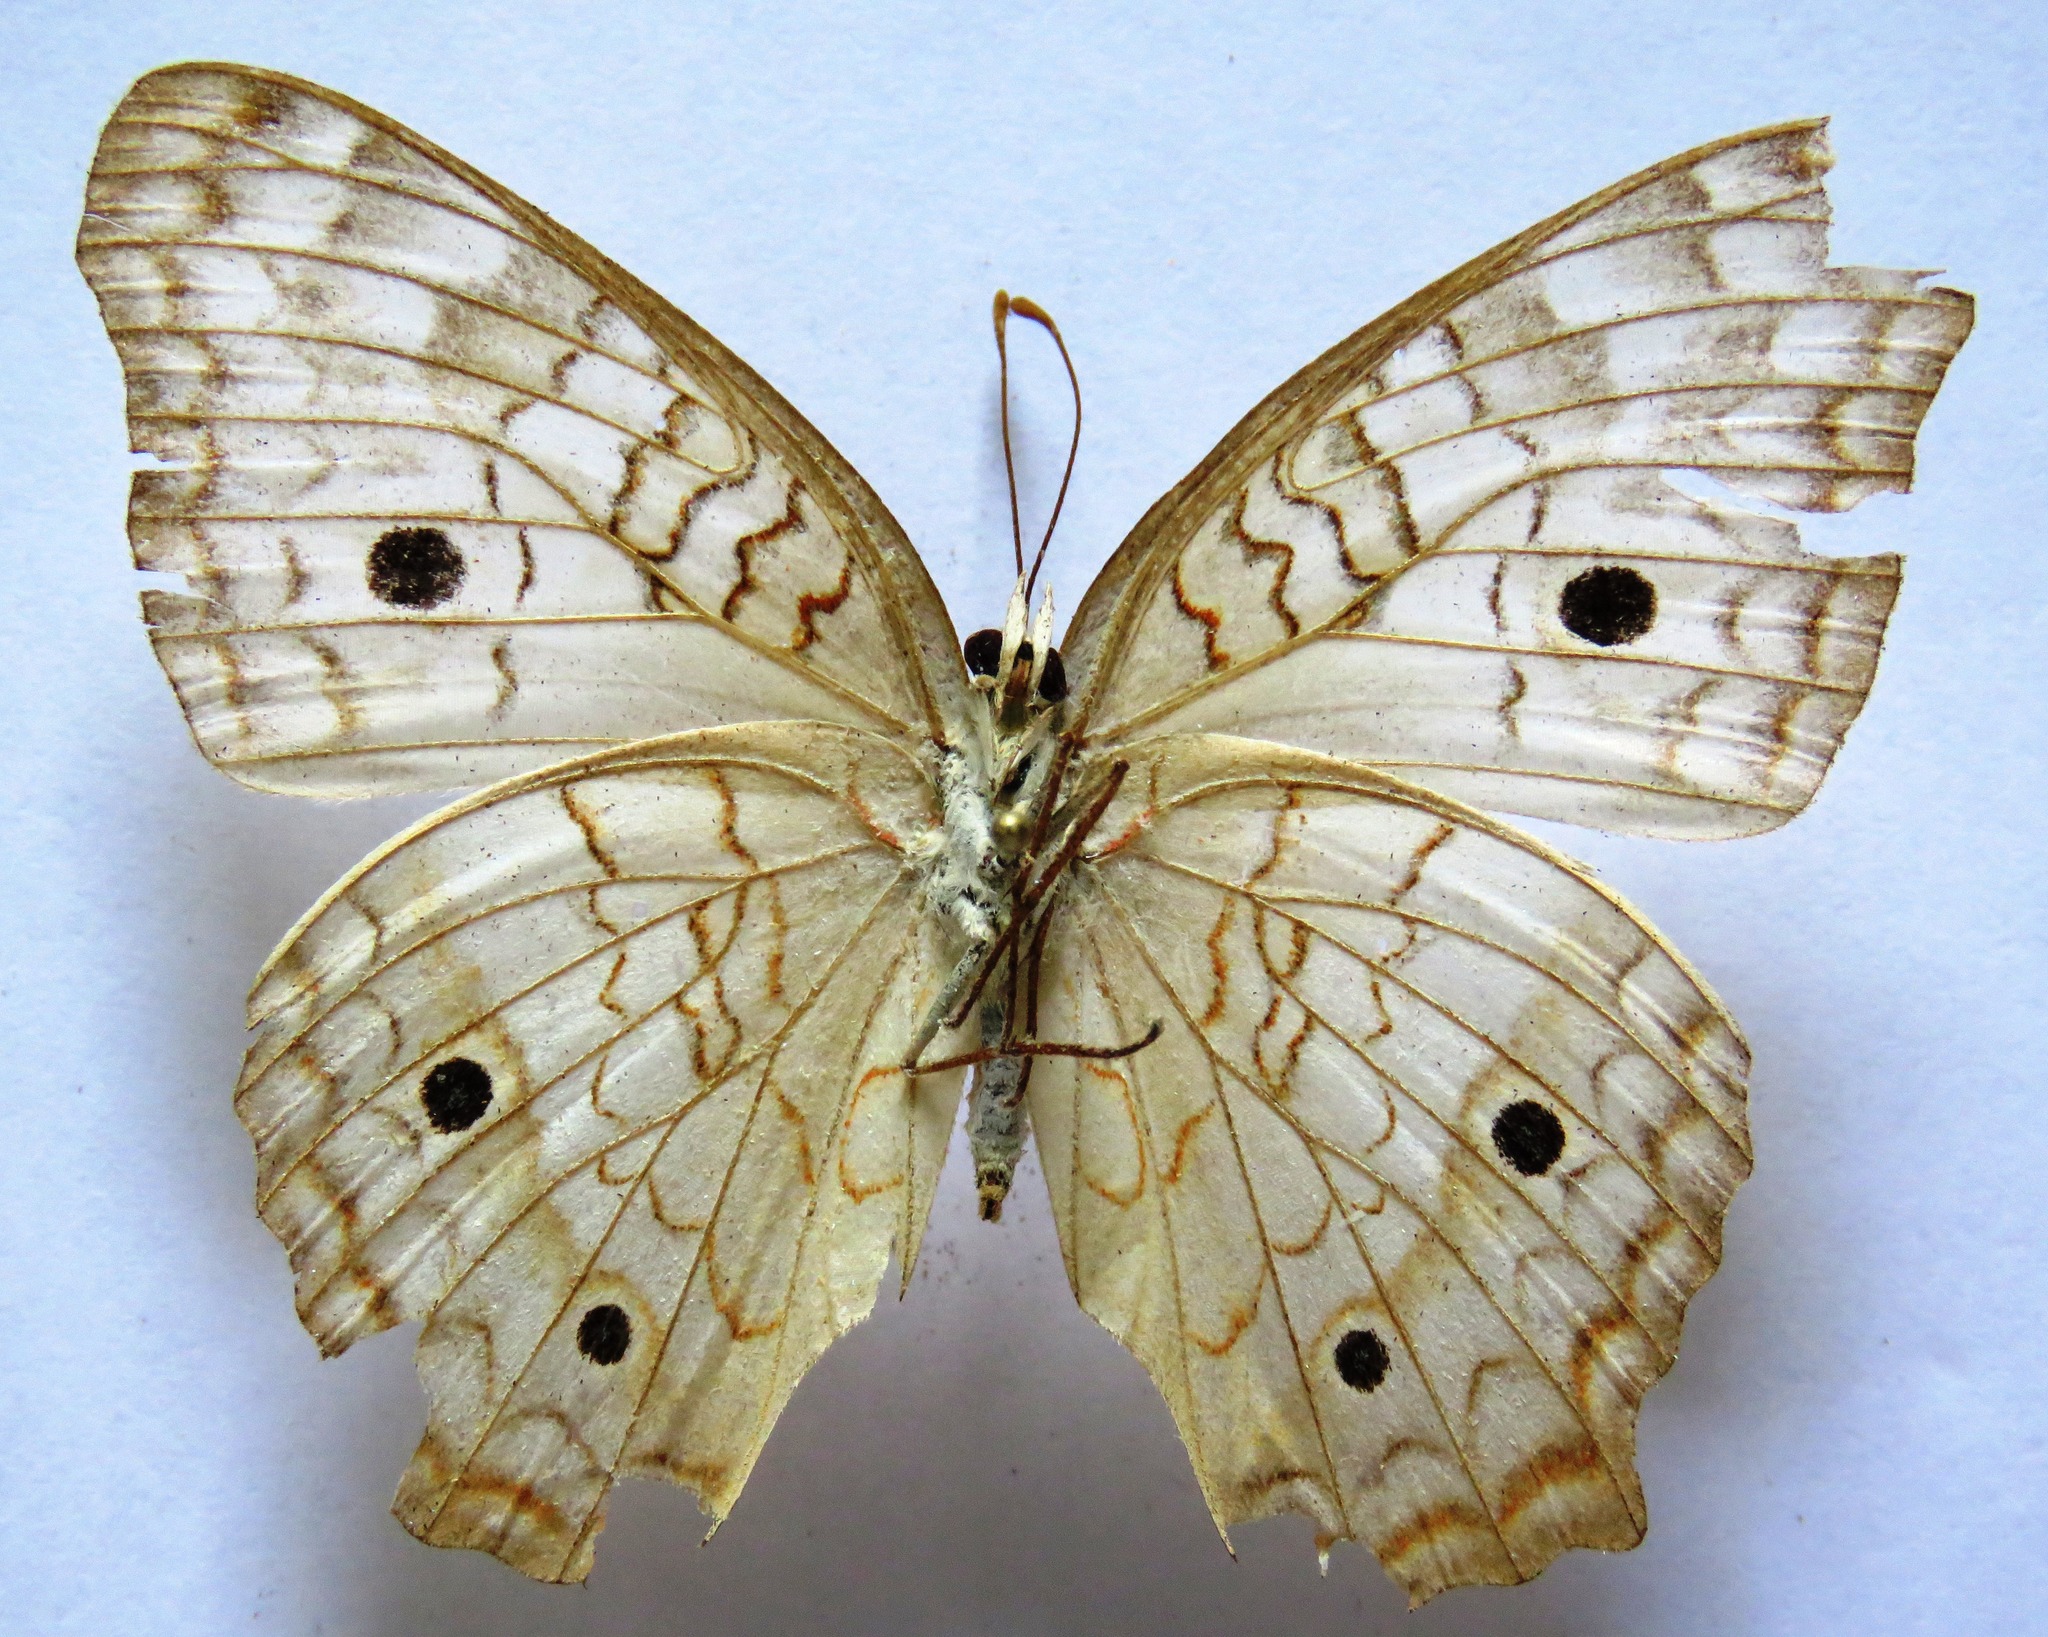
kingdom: Animalia
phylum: Arthropoda
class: Insecta
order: Lepidoptera
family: Nymphalidae
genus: Anartia
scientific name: Anartia jatrophae
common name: White peacock
